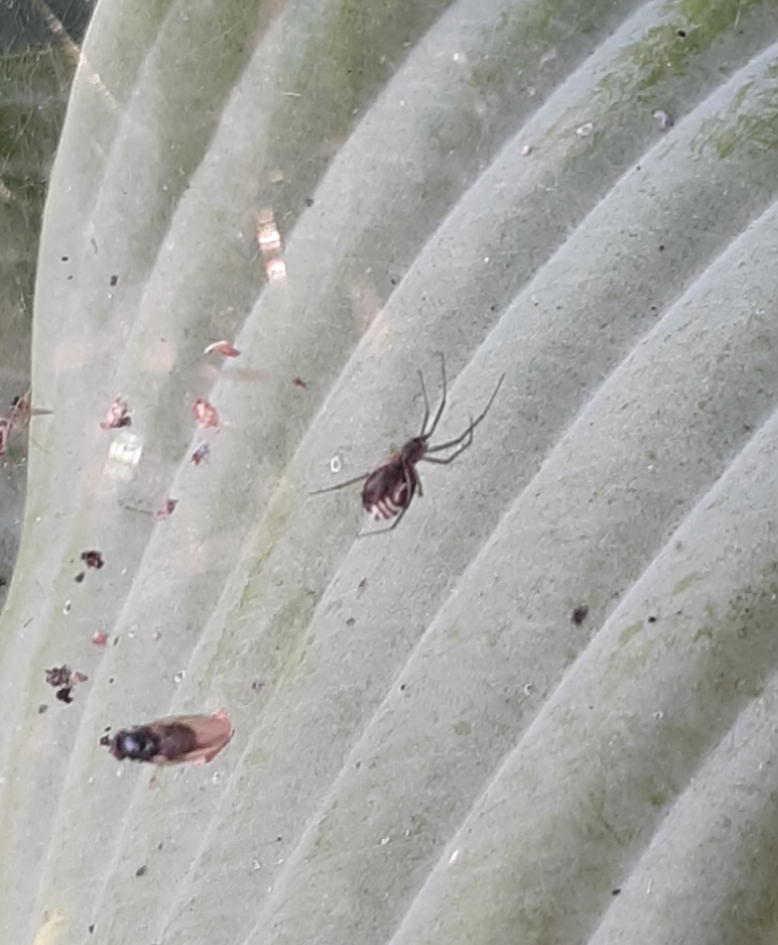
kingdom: Animalia
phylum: Arthropoda
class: Arachnida
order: Araneae
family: Linyphiidae
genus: Frontinella
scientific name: Frontinella pyramitela
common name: Bowl-and-doily spider
